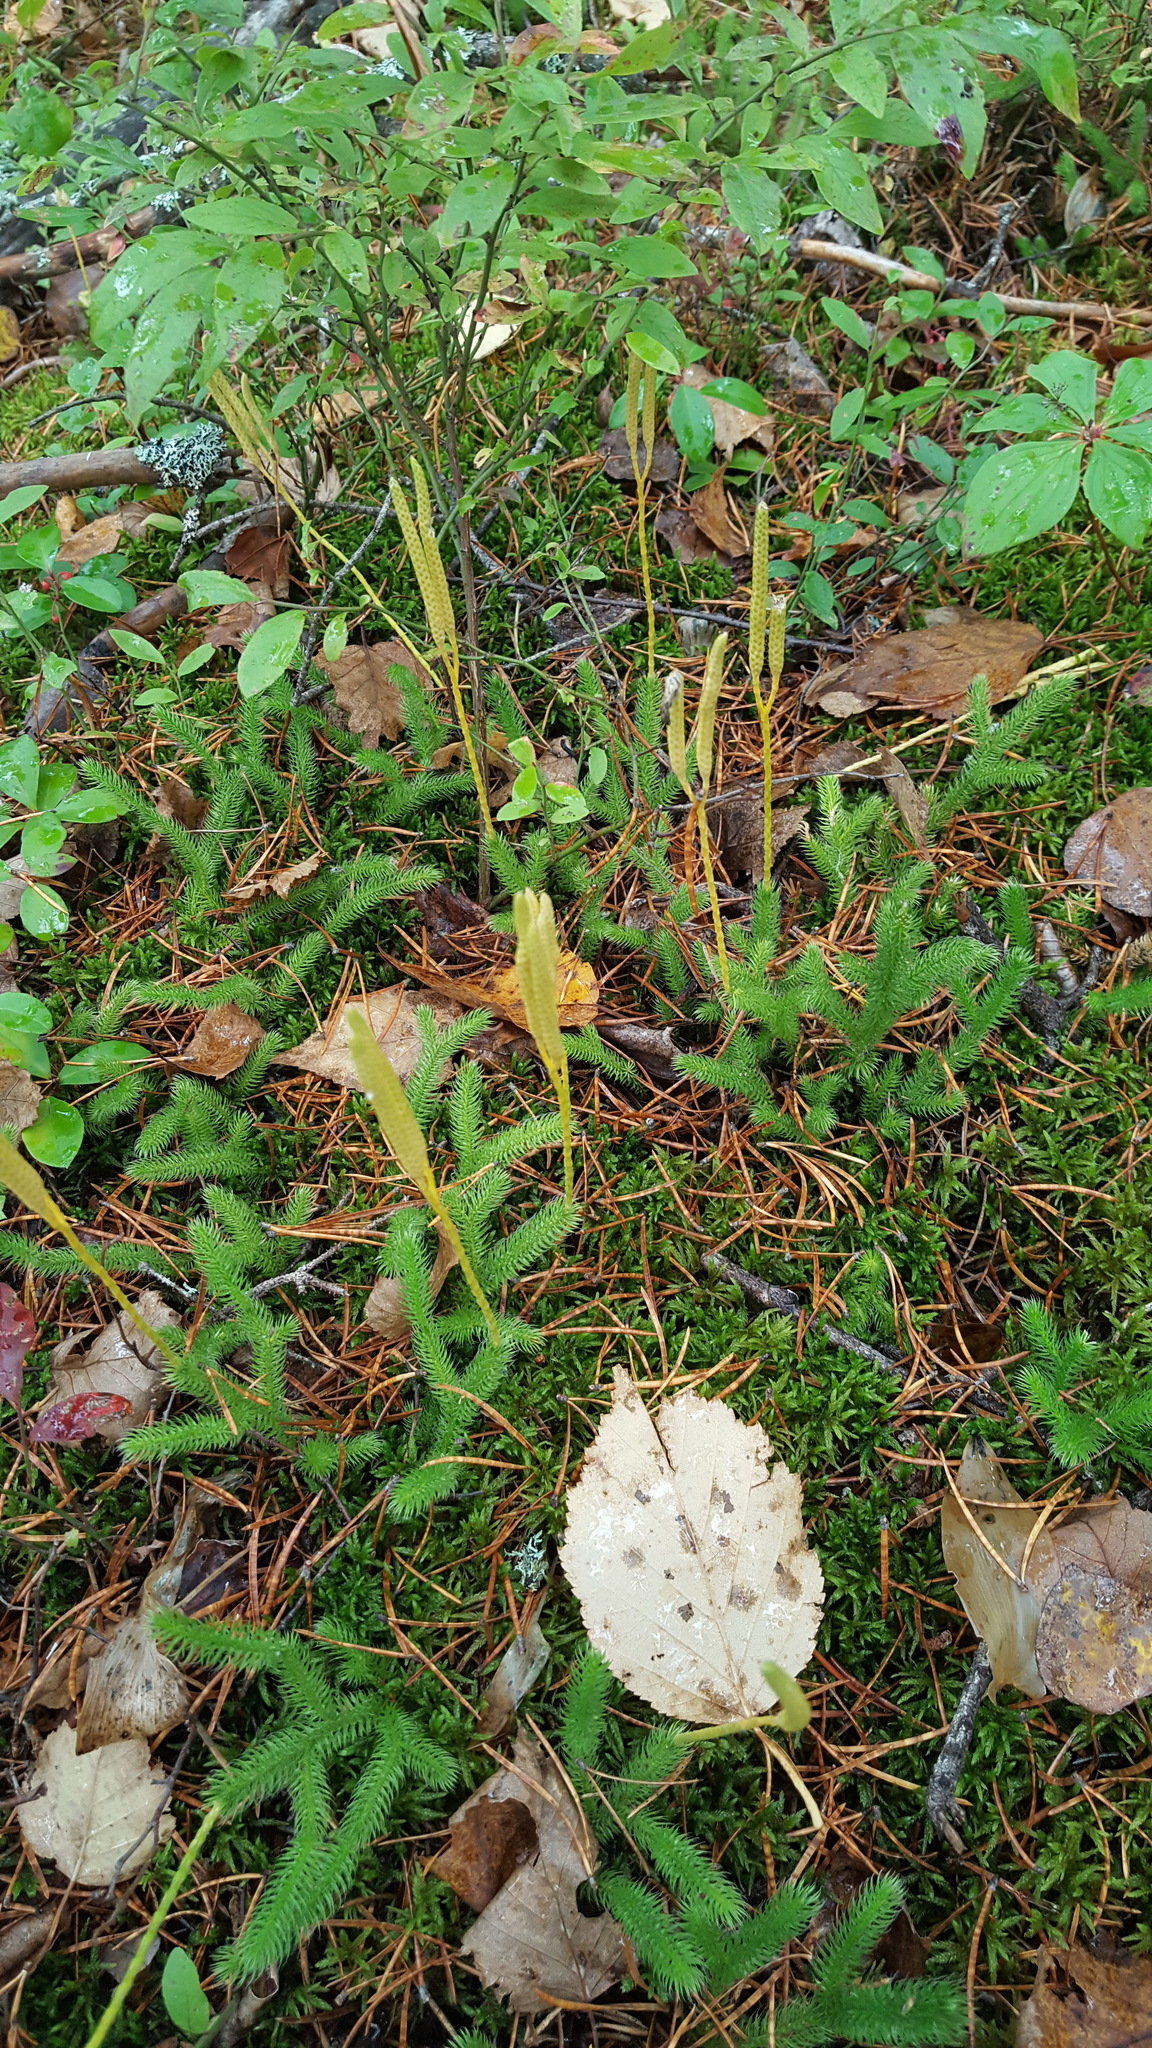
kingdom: Plantae
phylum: Tracheophyta
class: Lycopodiopsida
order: Lycopodiales
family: Lycopodiaceae
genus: Lycopodium
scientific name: Lycopodium clavatum
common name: Stag's-horn clubmoss
